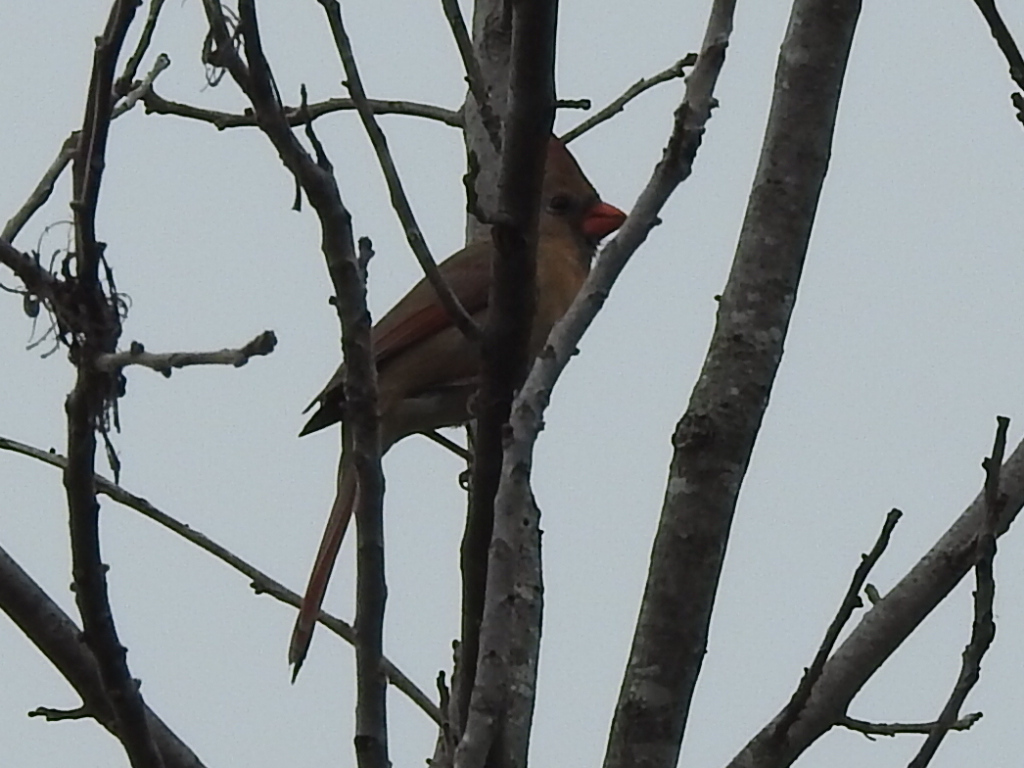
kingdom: Animalia
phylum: Chordata
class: Aves
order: Passeriformes
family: Cardinalidae
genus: Cardinalis
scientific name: Cardinalis cardinalis
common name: Northern cardinal
